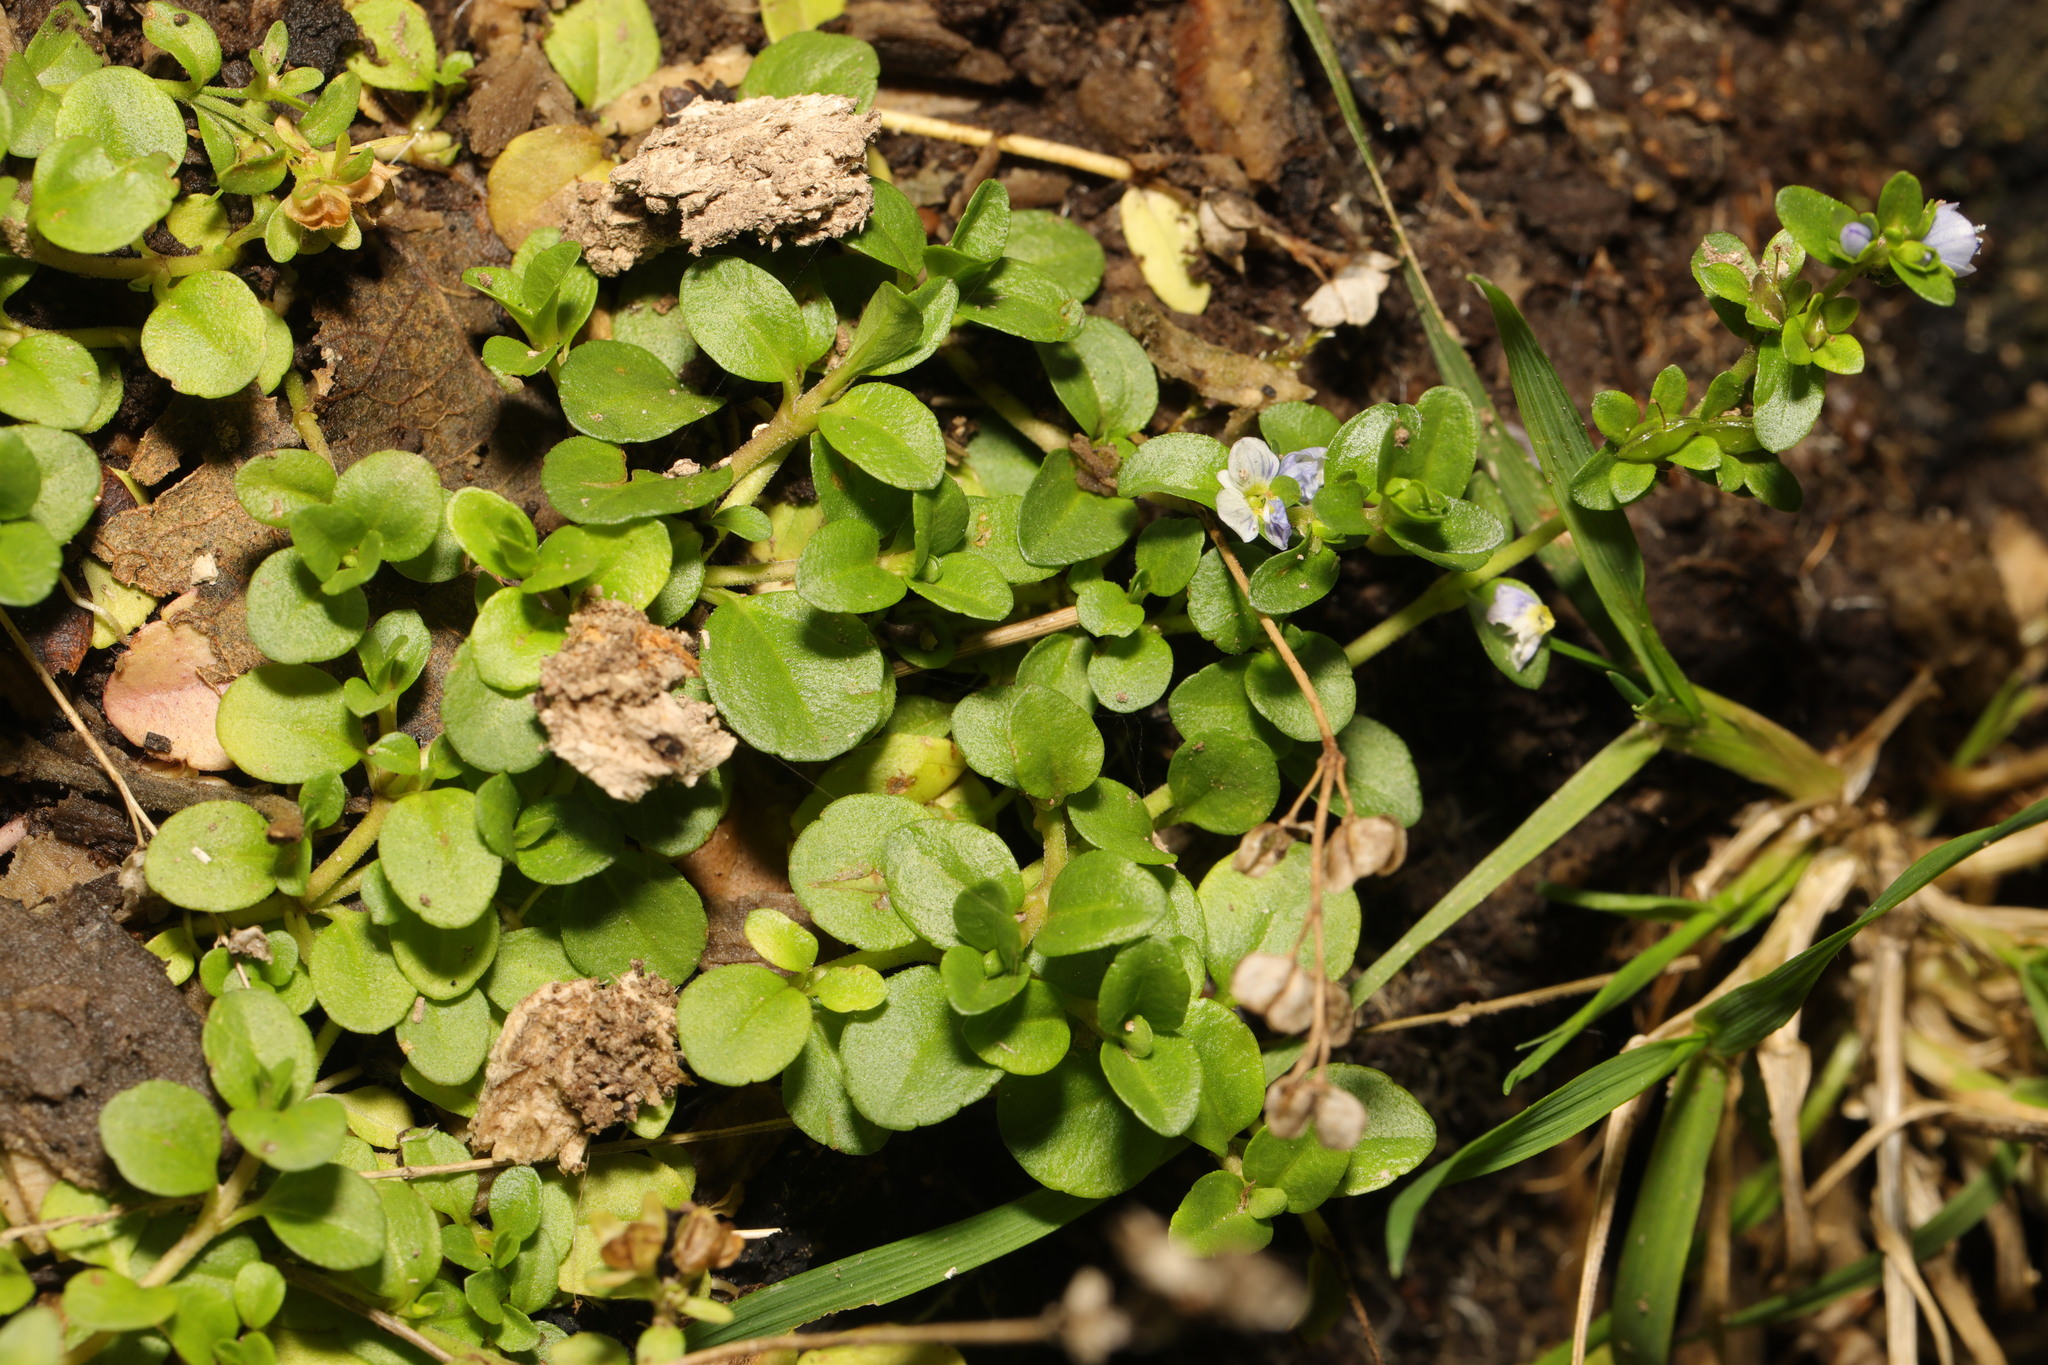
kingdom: Plantae
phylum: Tracheophyta
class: Magnoliopsida
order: Lamiales
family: Plantaginaceae
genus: Veronica
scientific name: Veronica serpyllifolia
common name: Thyme-leaved speedwell
